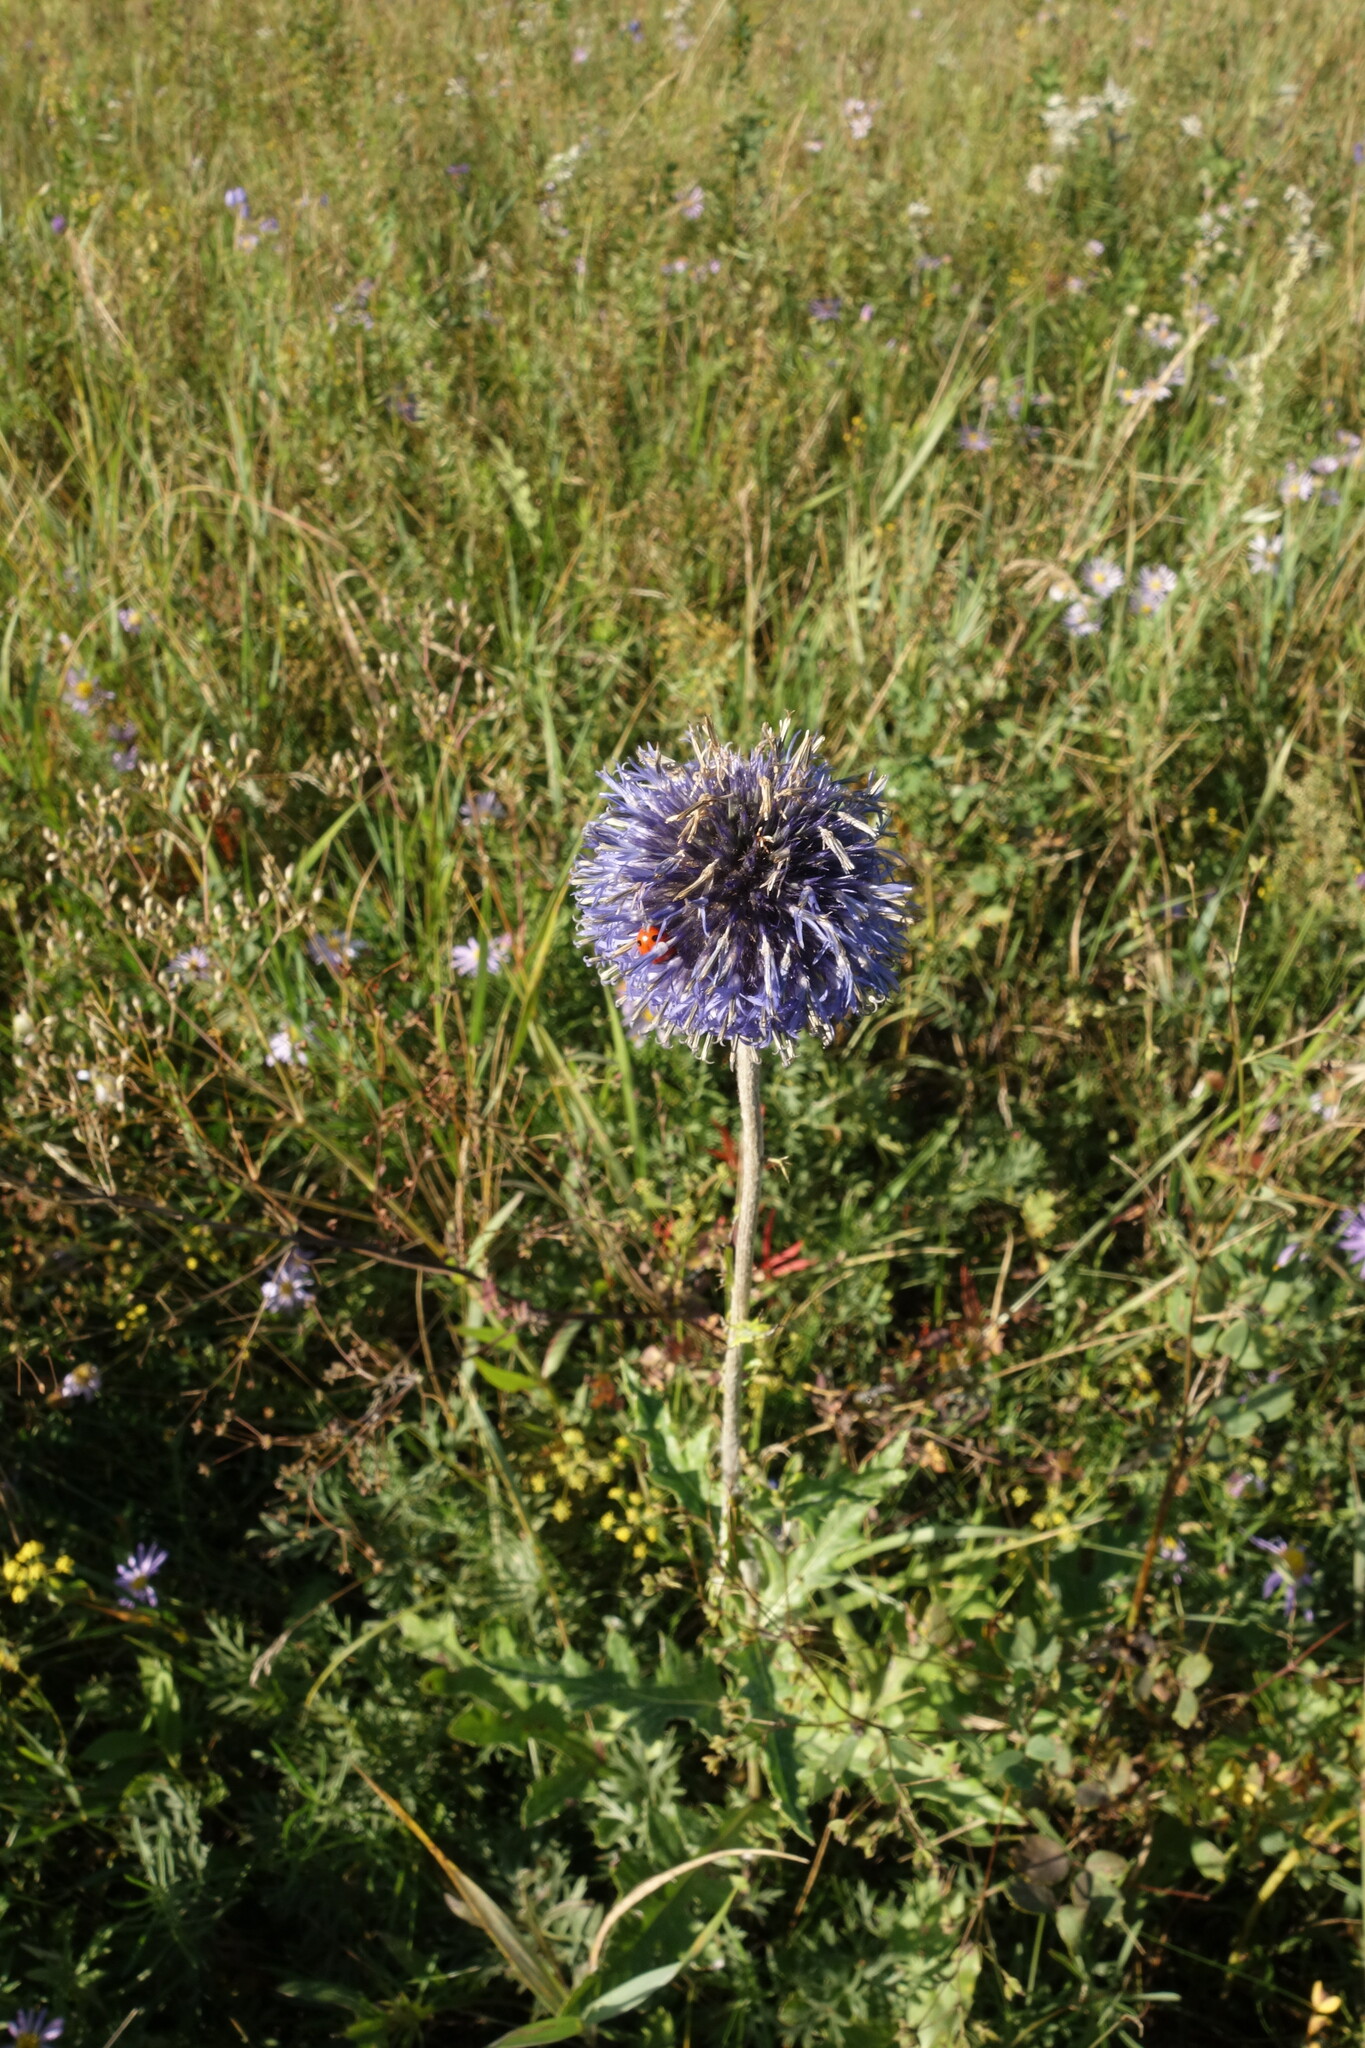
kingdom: Plantae
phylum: Tracheophyta
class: Magnoliopsida
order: Asterales
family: Asteraceae
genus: Echinops
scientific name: Echinops davuricus
